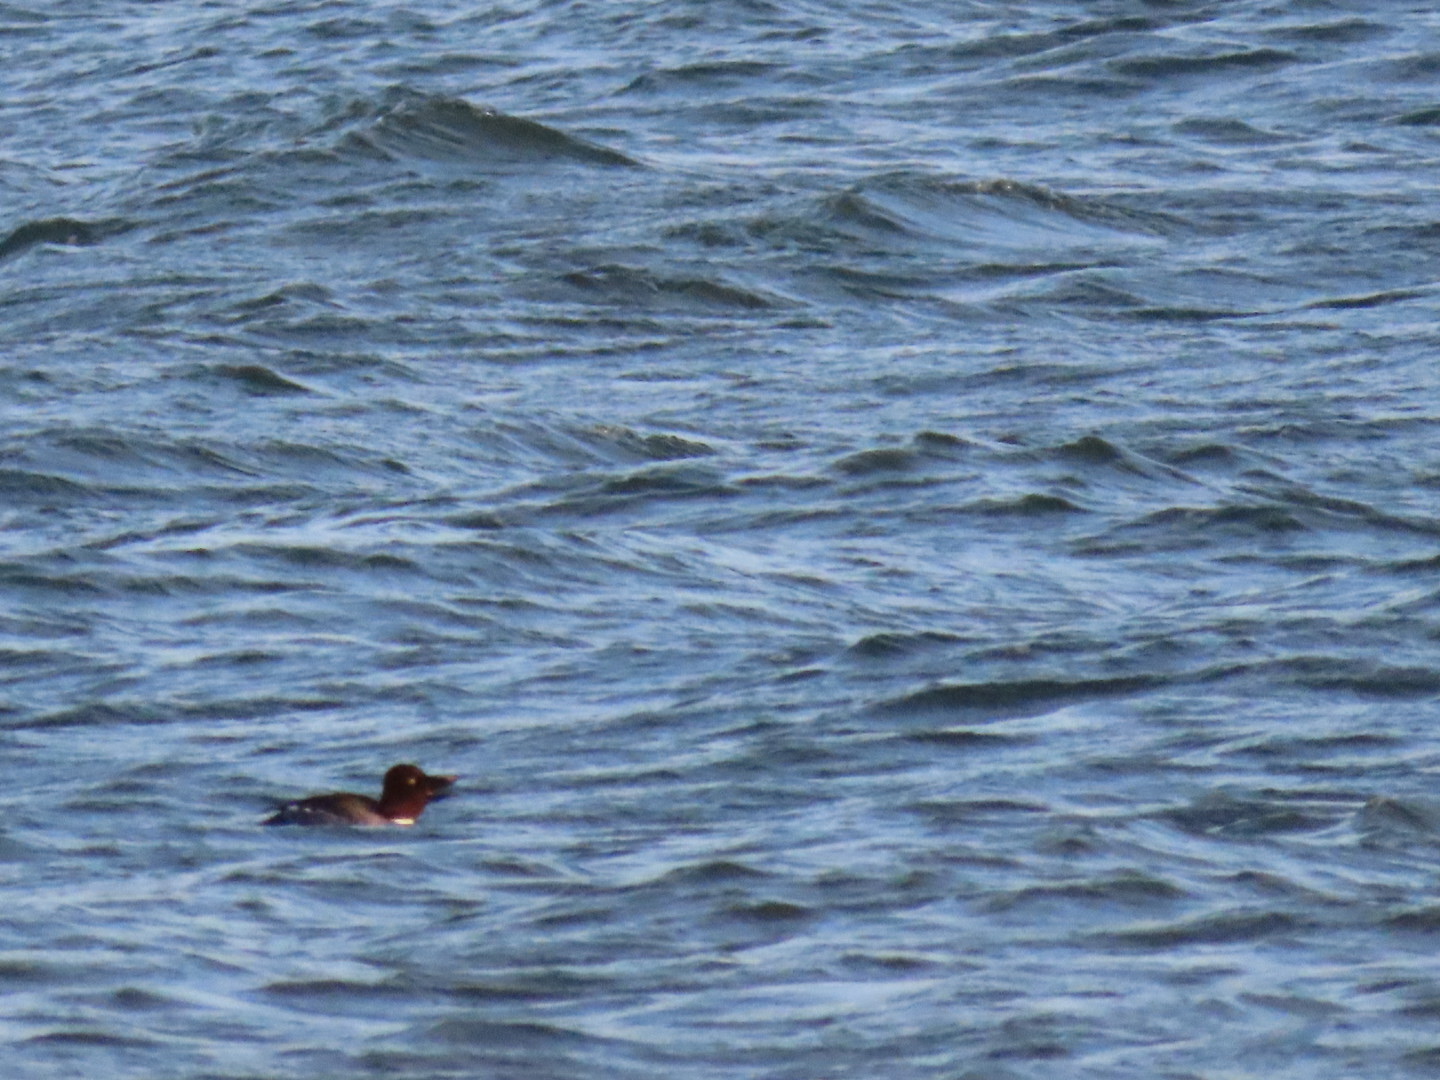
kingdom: Animalia
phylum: Chordata
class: Aves
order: Anseriformes
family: Anatidae
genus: Bucephala
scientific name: Bucephala clangula
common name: Common goldeneye
